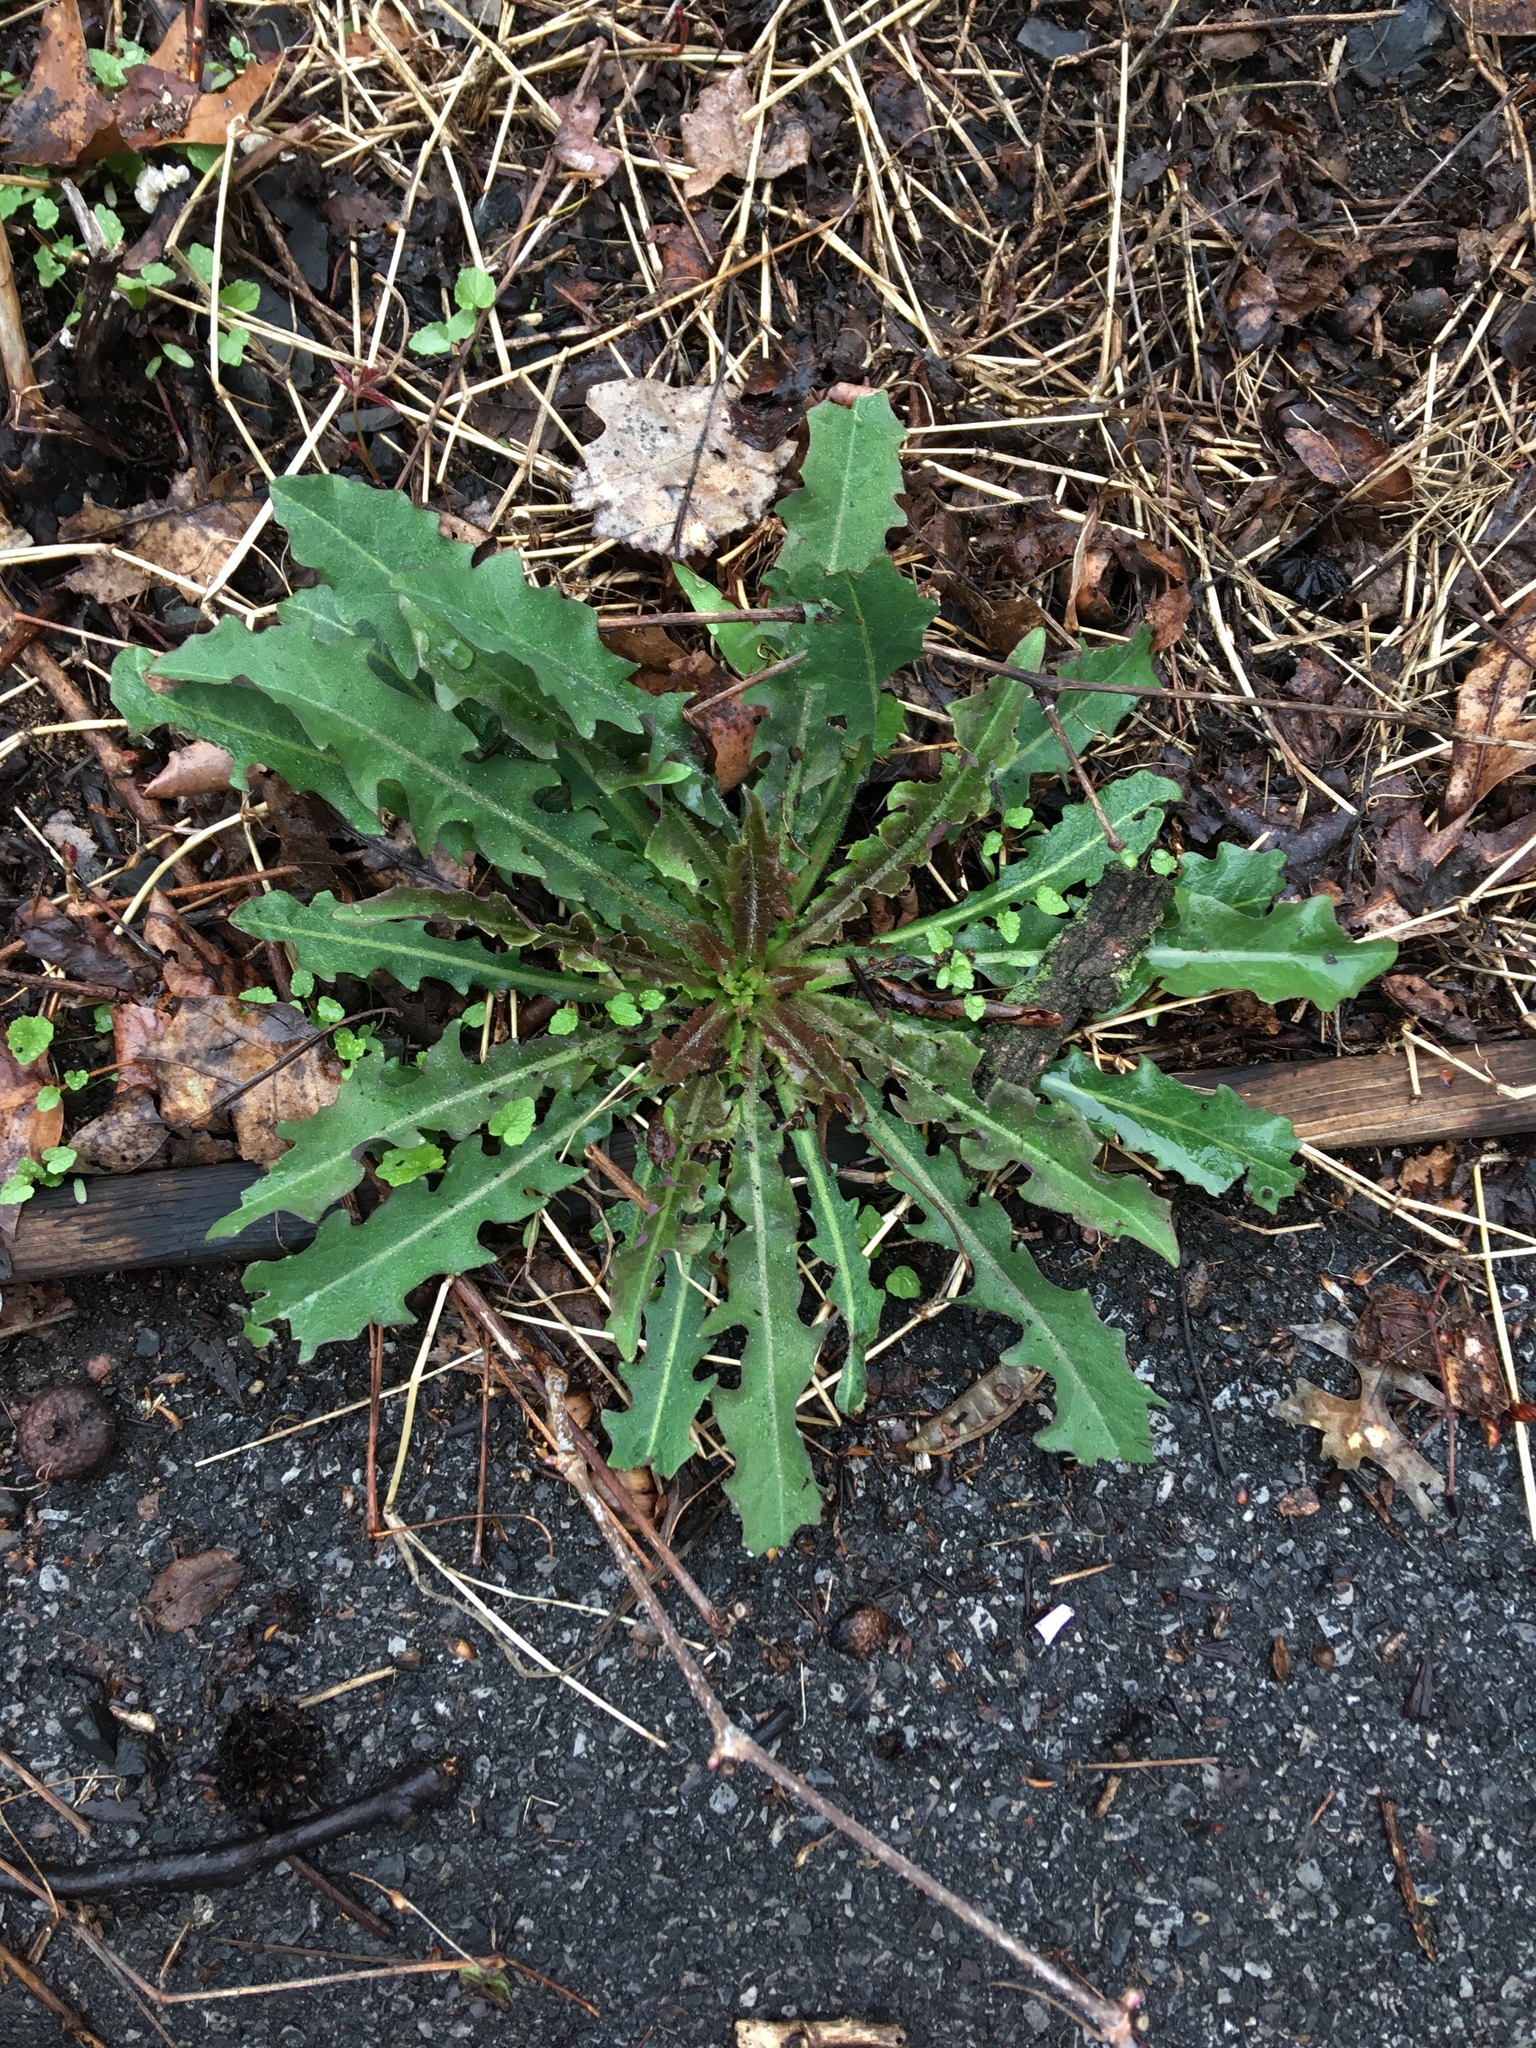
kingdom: Plantae
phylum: Tracheophyta
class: Magnoliopsida
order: Asterales
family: Asteraceae
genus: Crepis
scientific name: Crepis capillaris
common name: Smooth hawksbeard
